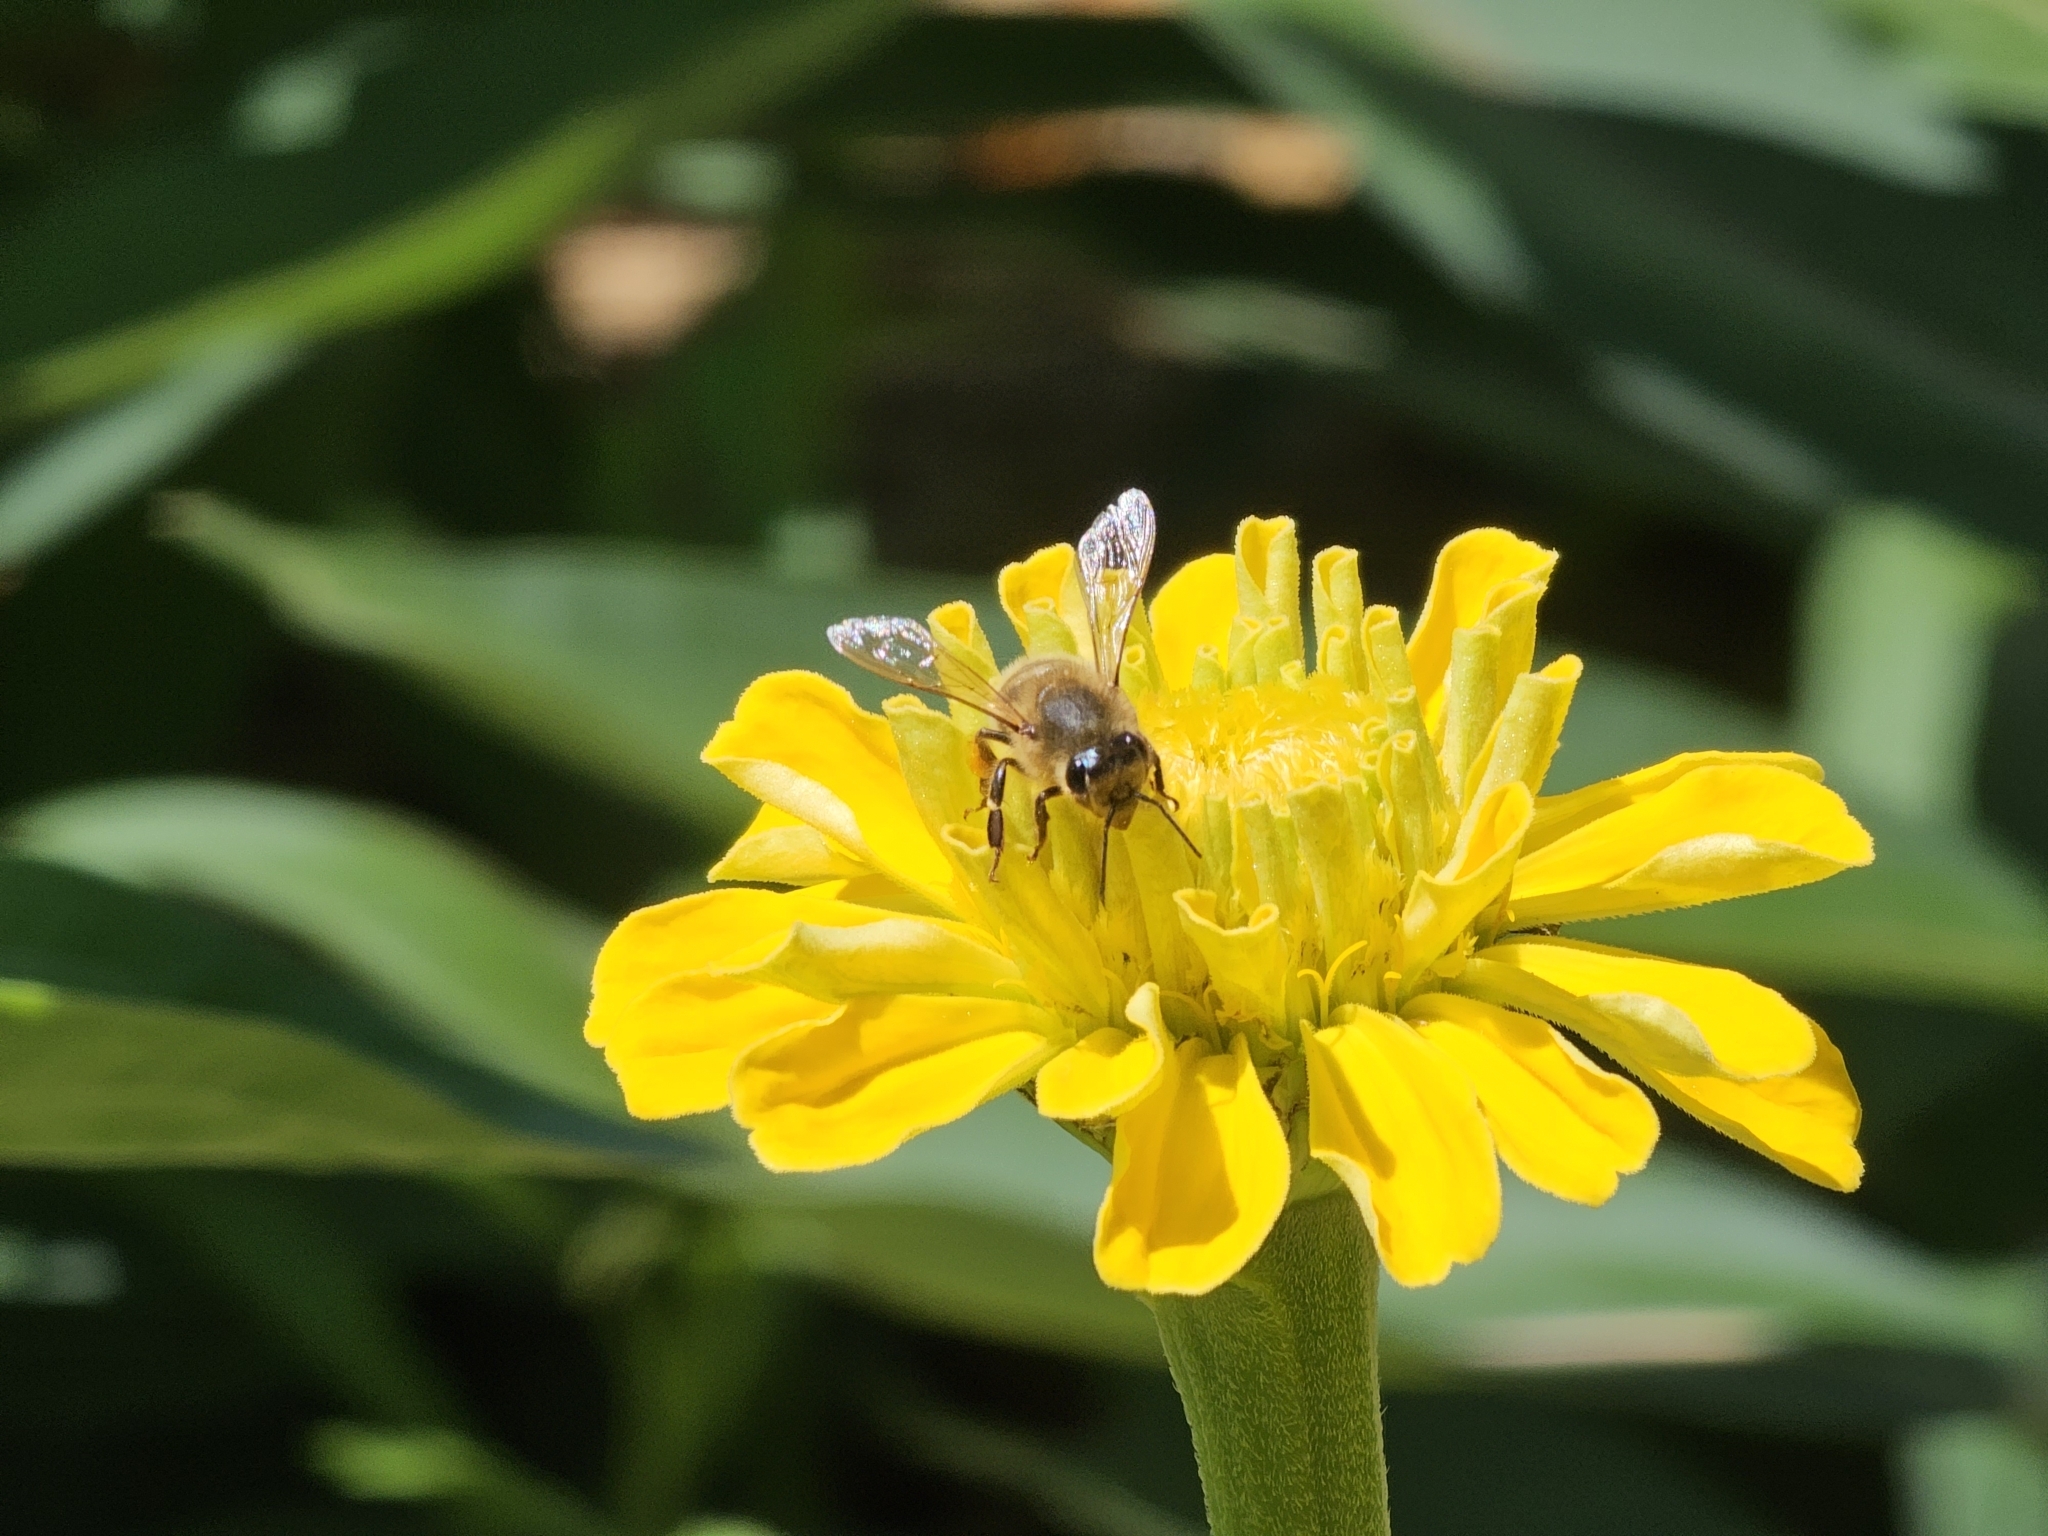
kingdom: Animalia
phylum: Arthropoda
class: Insecta
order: Hymenoptera
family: Apidae
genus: Apis
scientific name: Apis mellifera
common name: Honey bee
